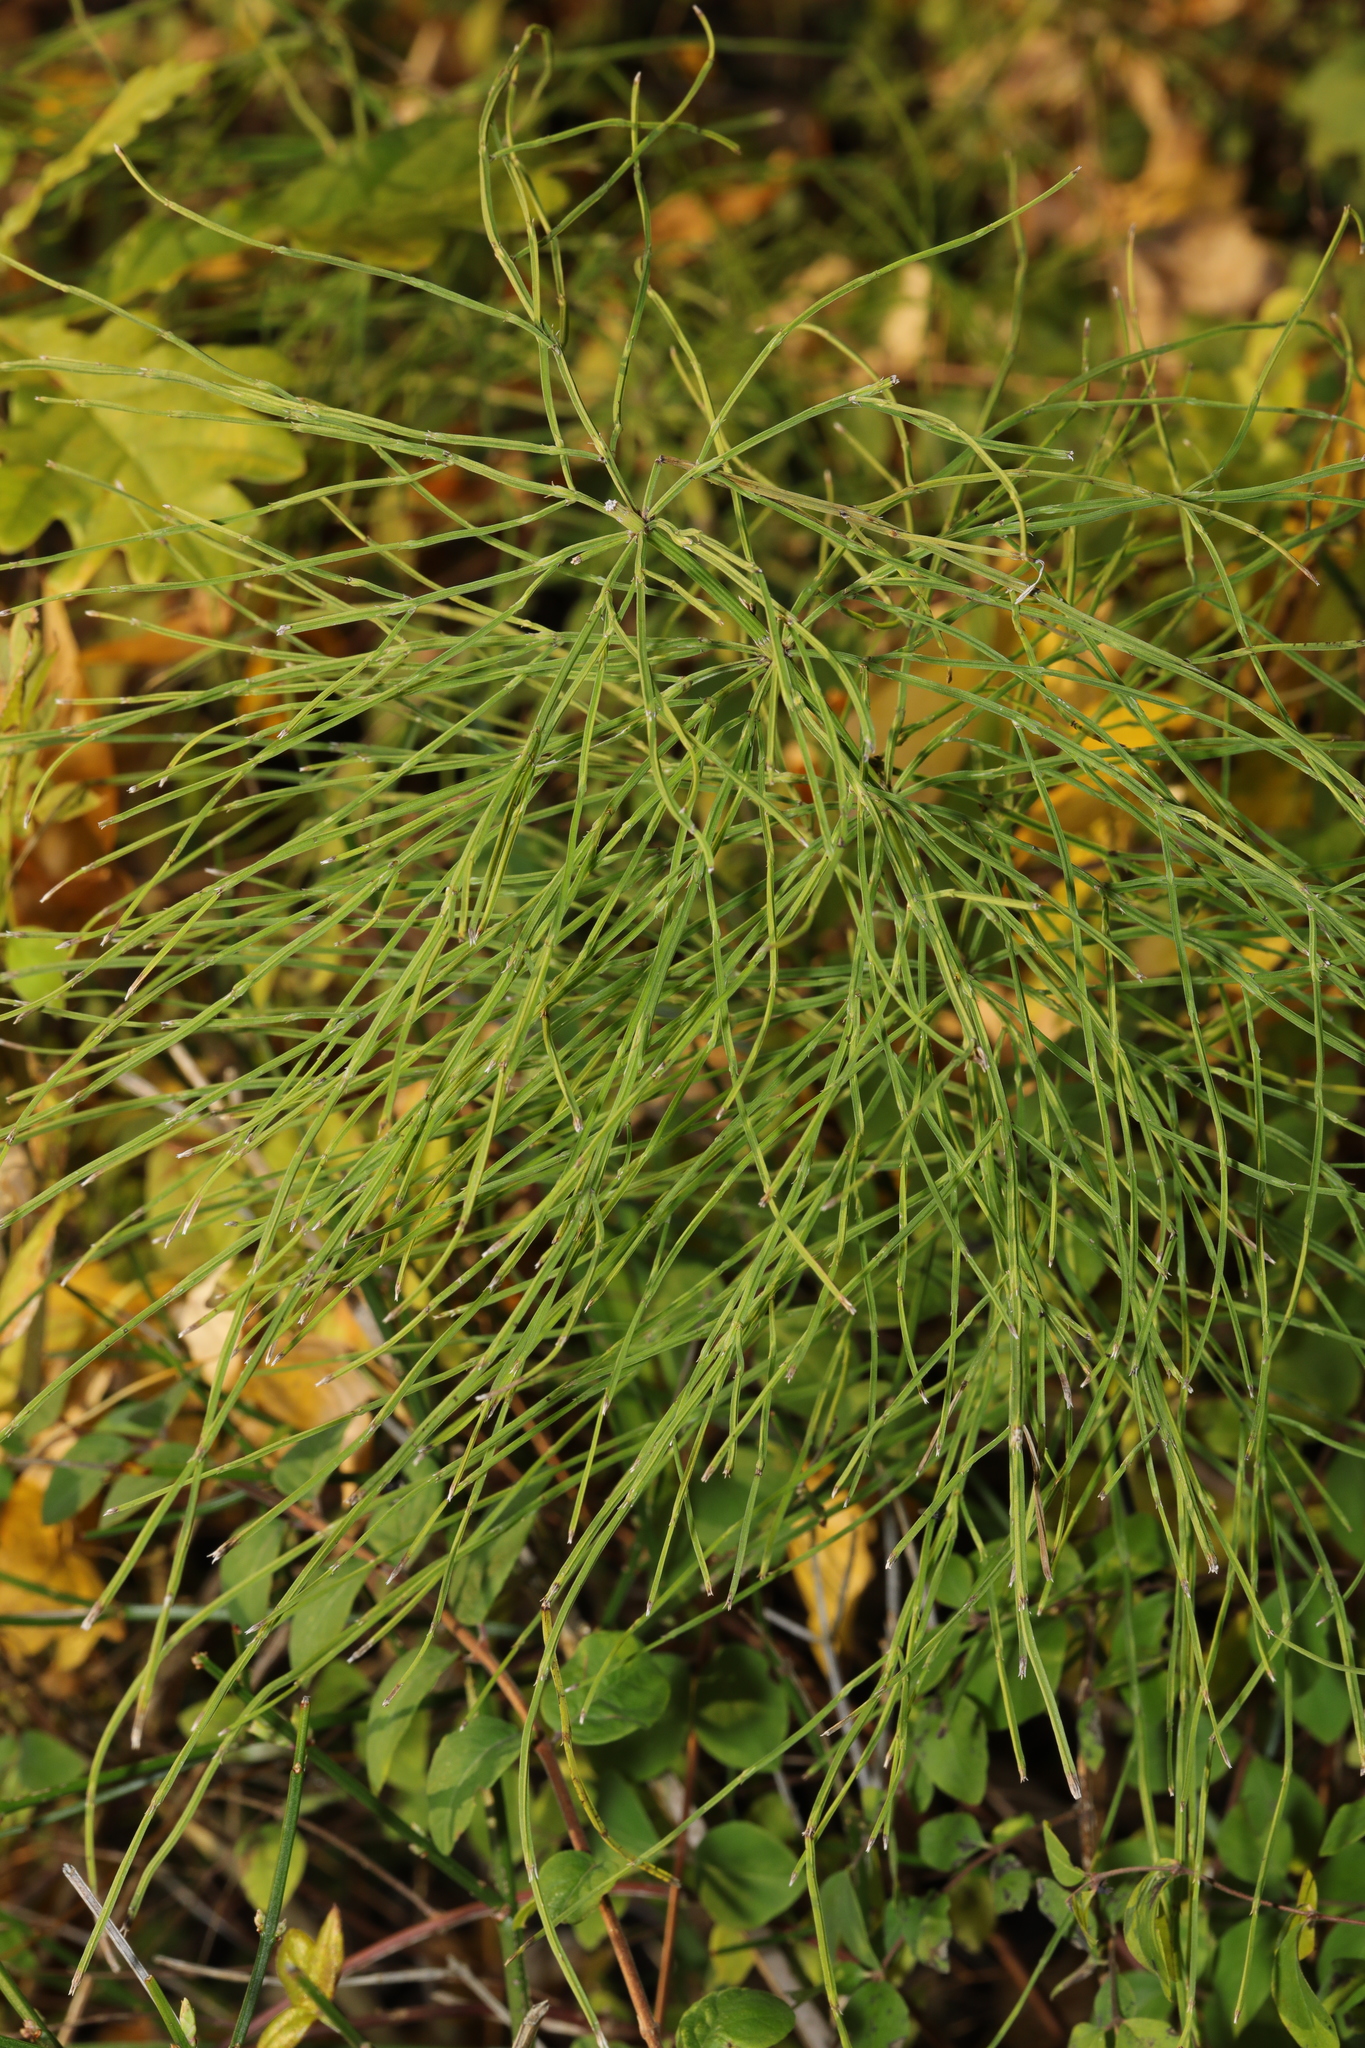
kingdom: Plantae
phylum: Tracheophyta
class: Polypodiopsida
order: Equisetales
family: Equisetaceae
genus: Equisetum
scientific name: Equisetum arvense
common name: Field horsetail
